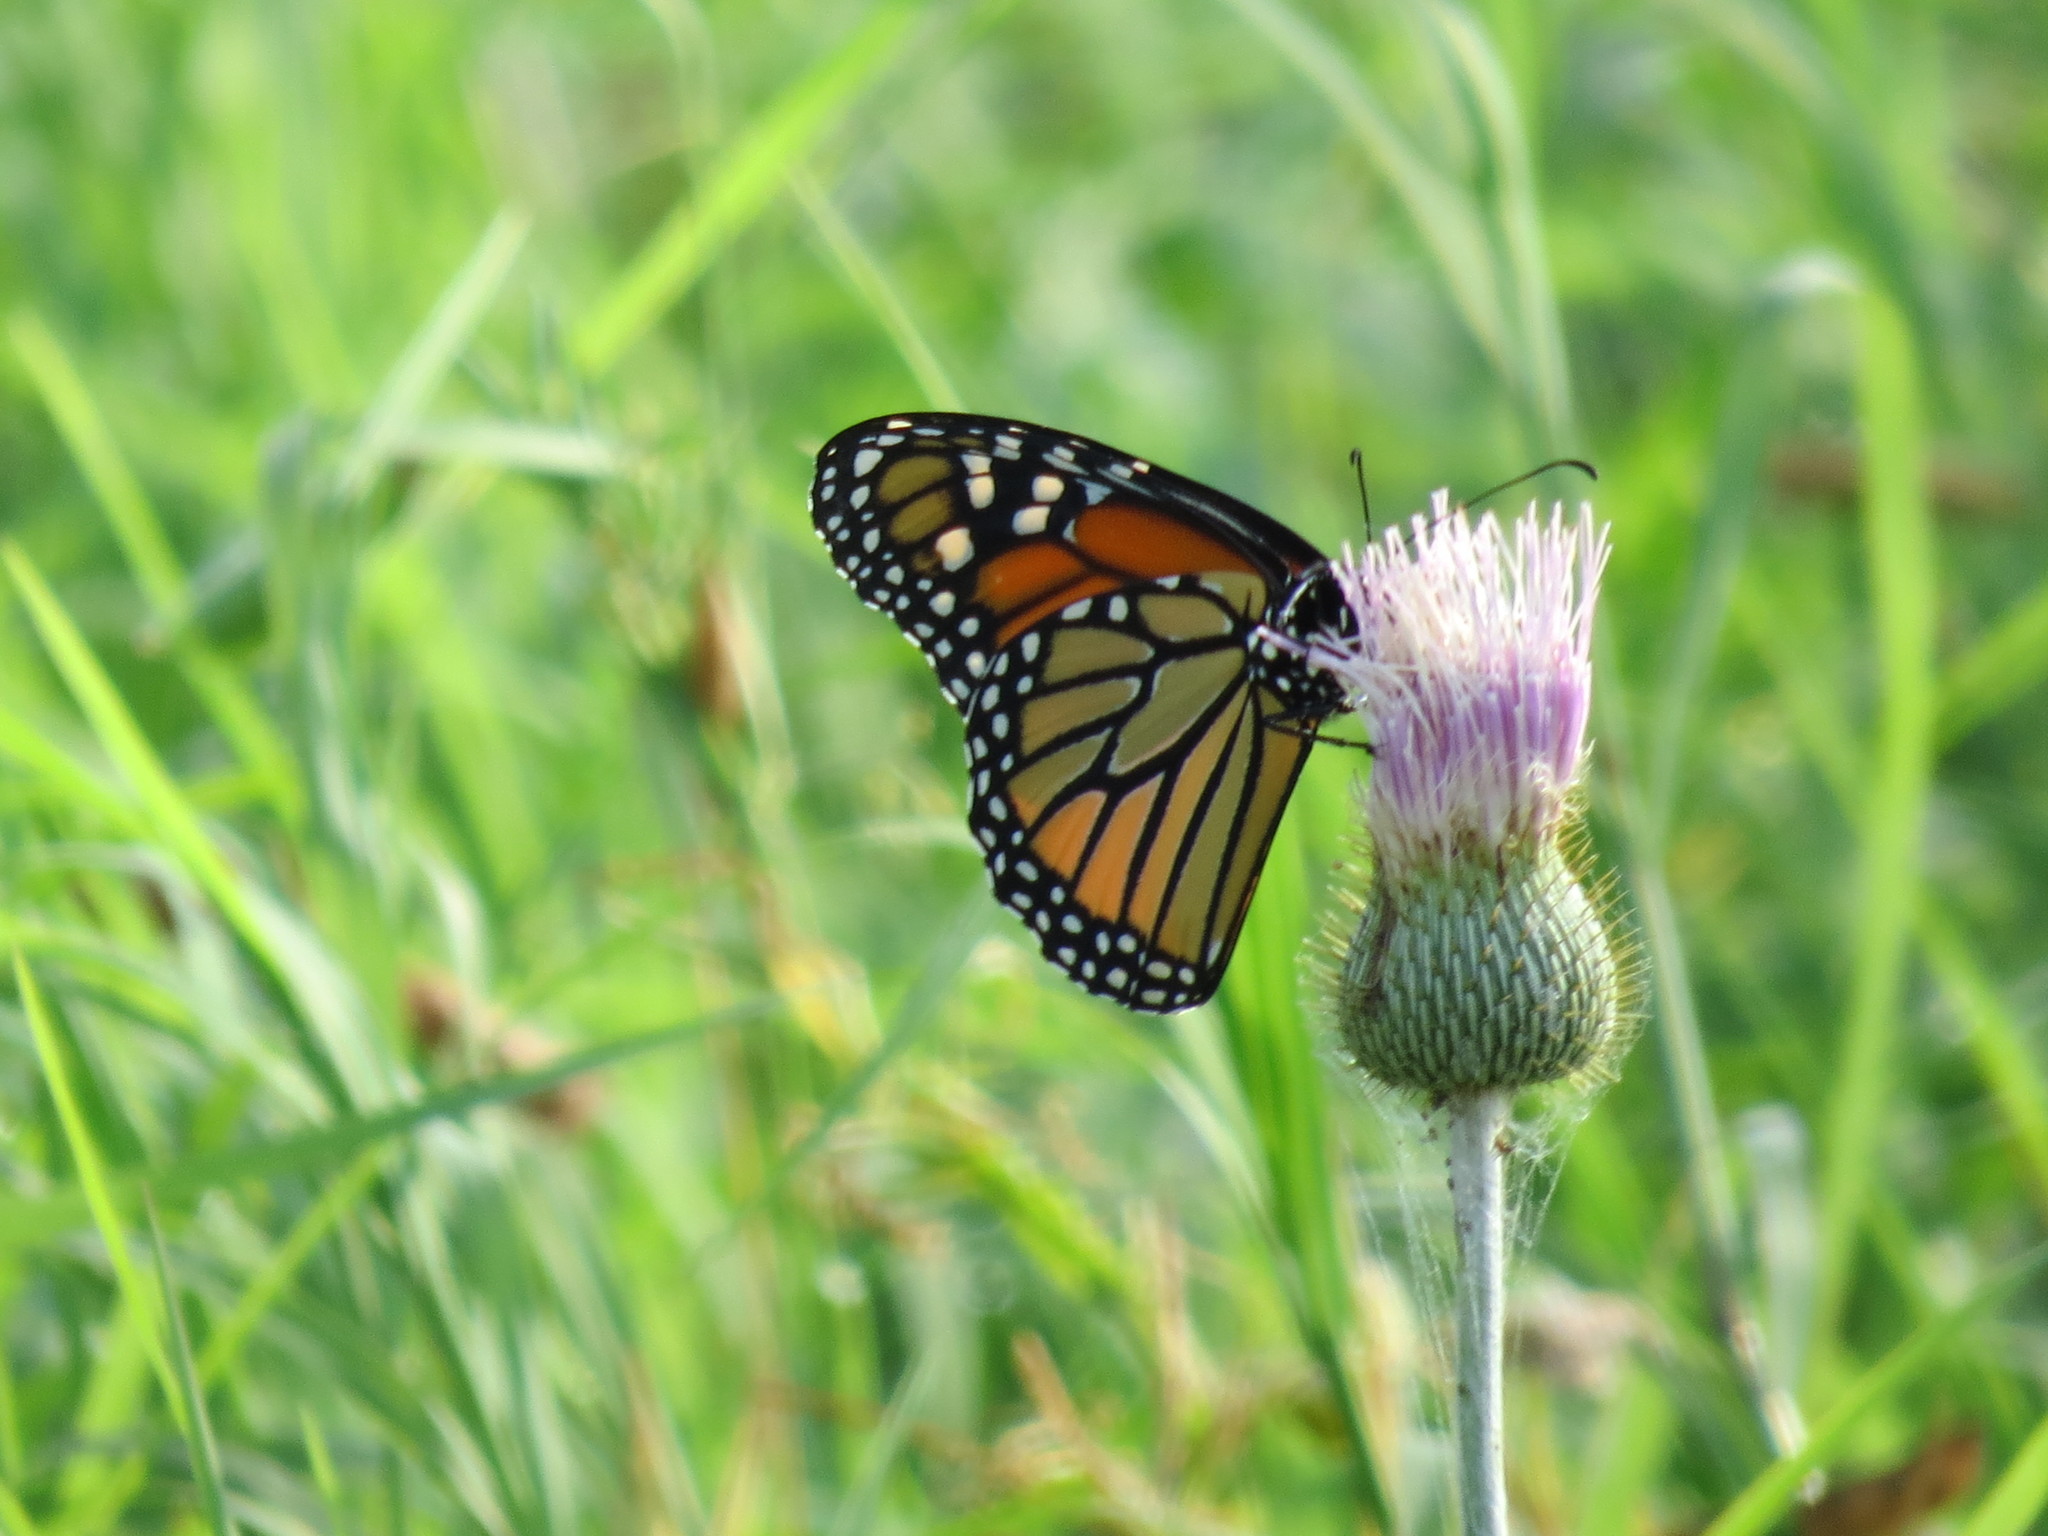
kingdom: Animalia
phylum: Arthropoda
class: Insecta
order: Lepidoptera
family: Nymphalidae
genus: Danaus
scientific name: Danaus plexippus
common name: Monarch
